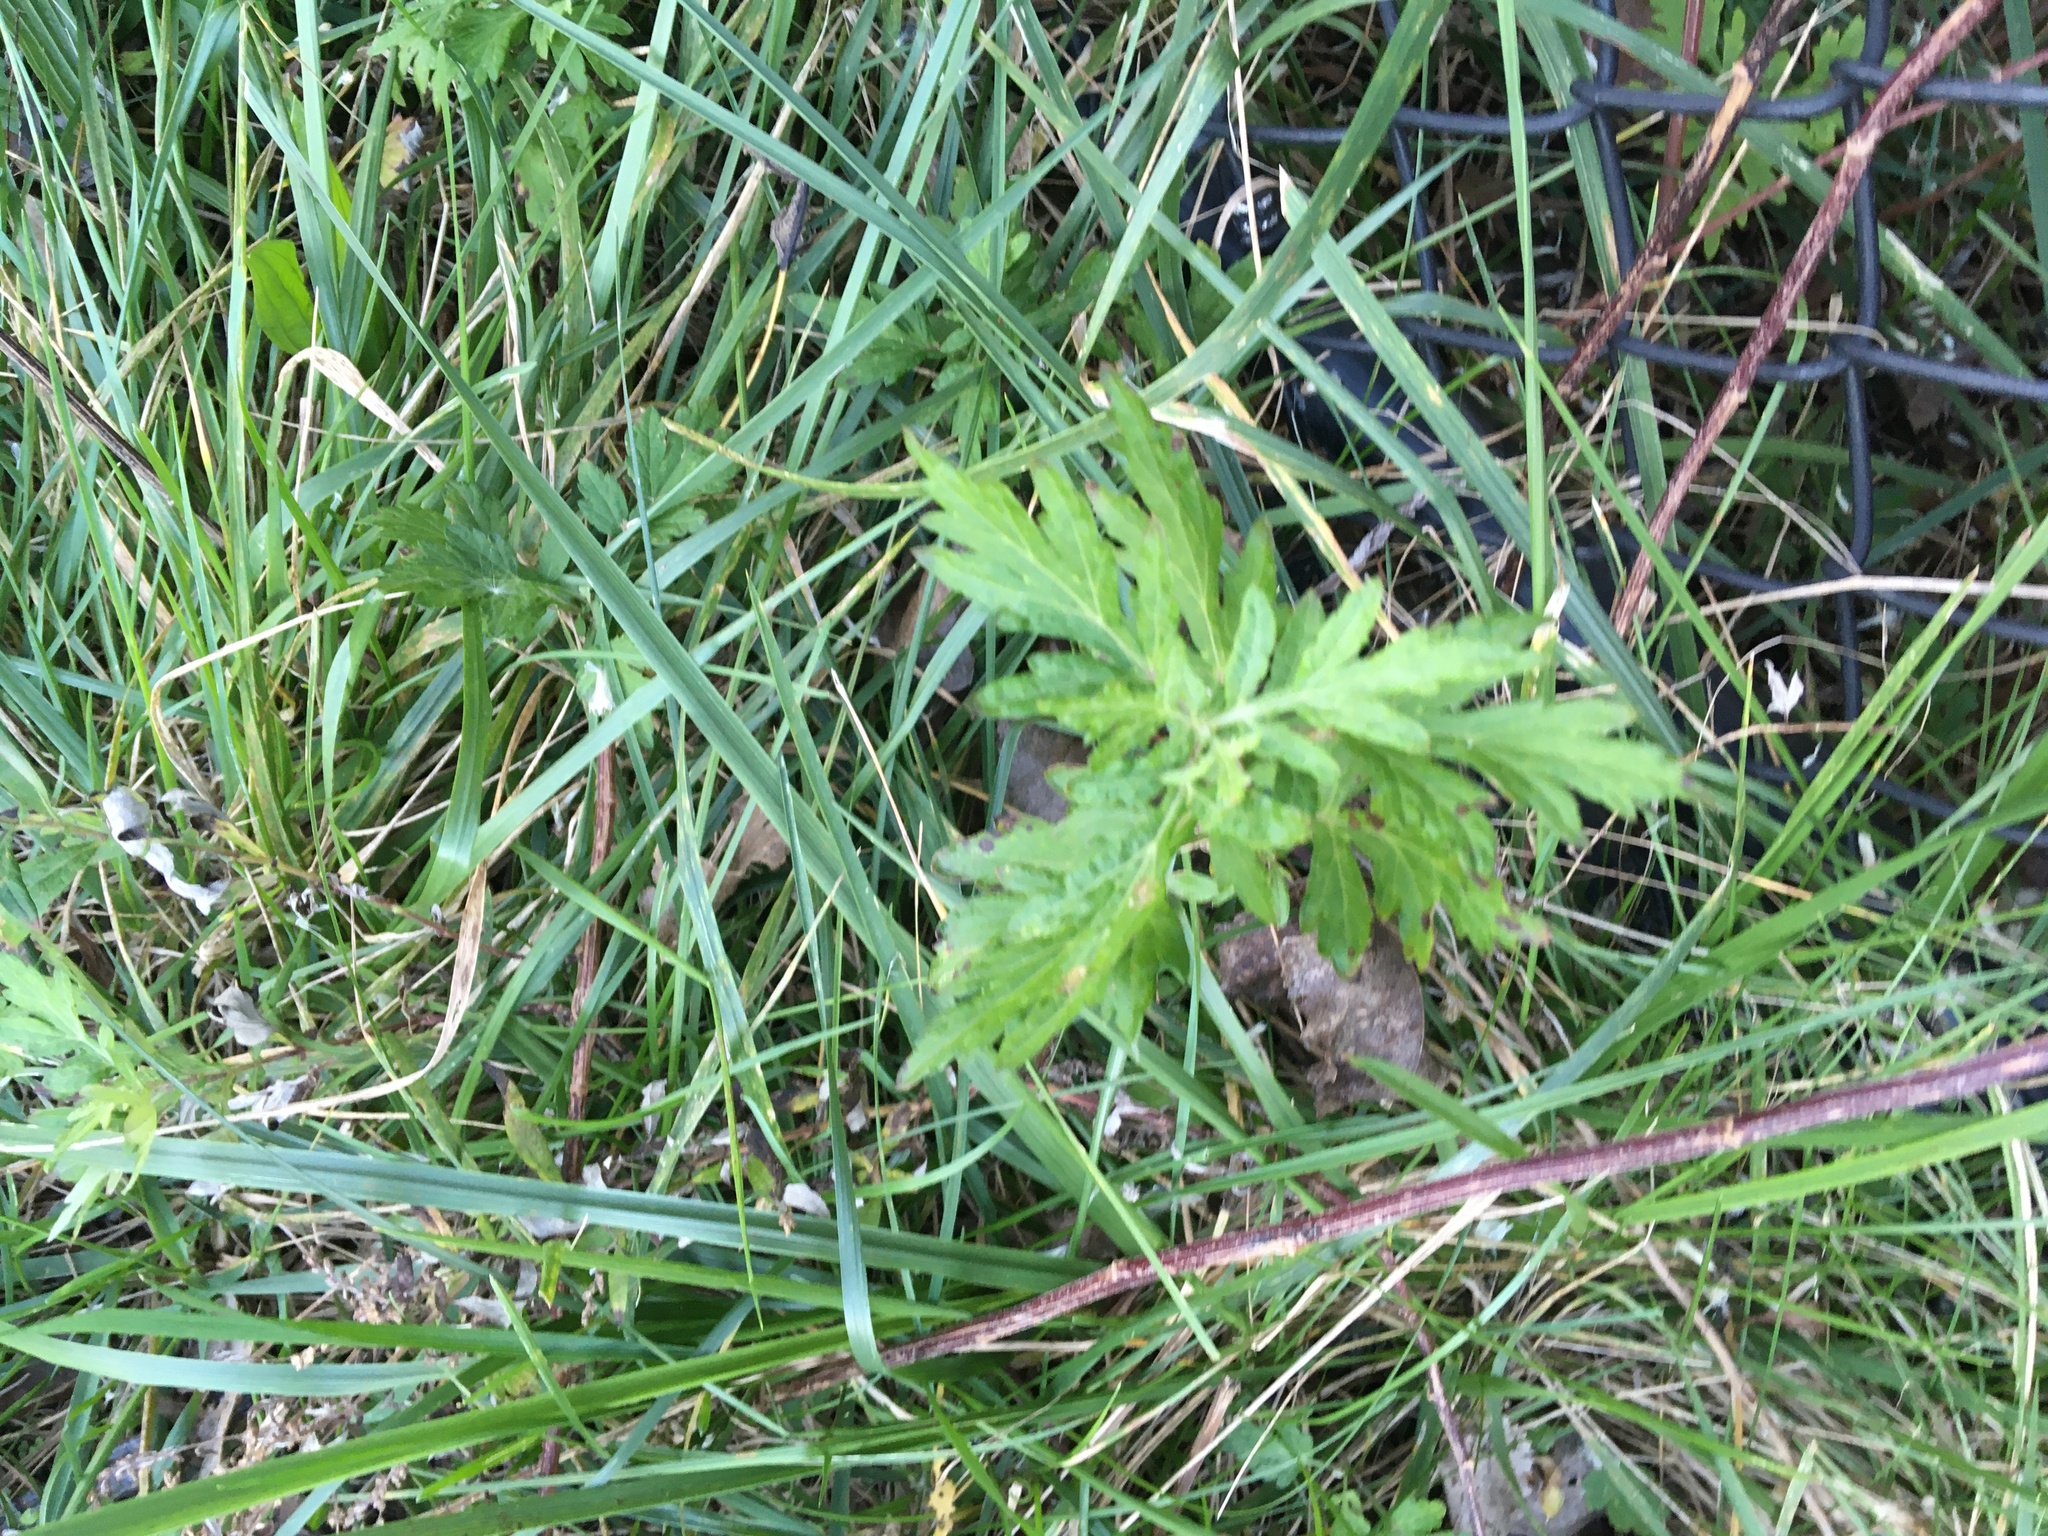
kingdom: Plantae
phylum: Tracheophyta
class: Magnoliopsida
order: Asterales
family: Asteraceae
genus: Artemisia
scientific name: Artemisia vulgaris
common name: Mugwort
